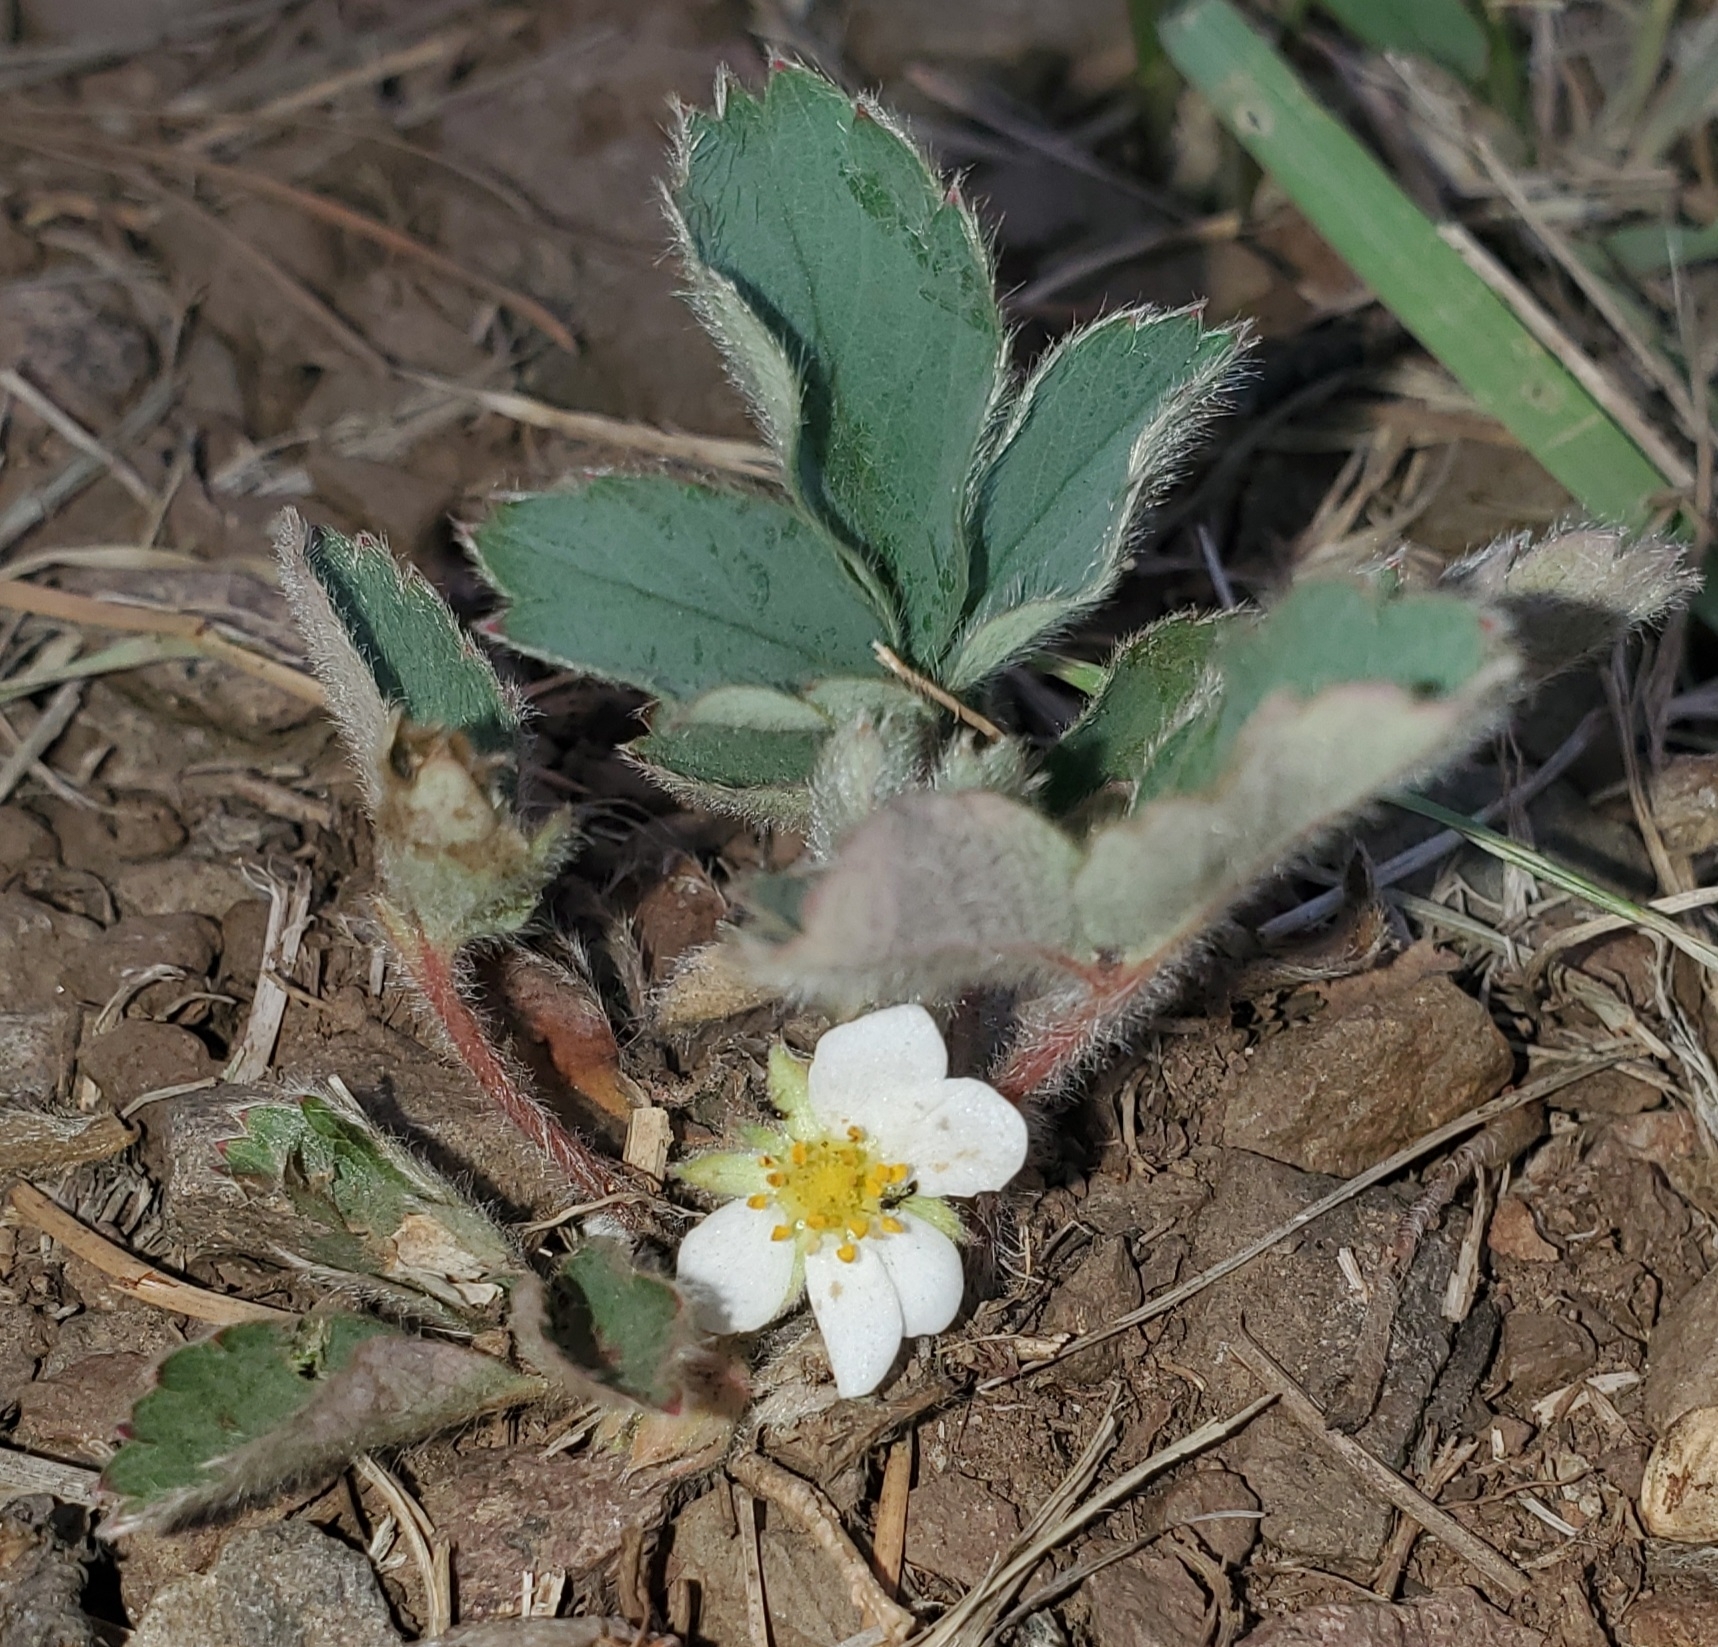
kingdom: Plantae
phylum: Tracheophyta
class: Magnoliopsida
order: Rosales
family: Rosaceae
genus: Fragaria
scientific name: Fragaria virginiana
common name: Thickleaved wild strawberry
